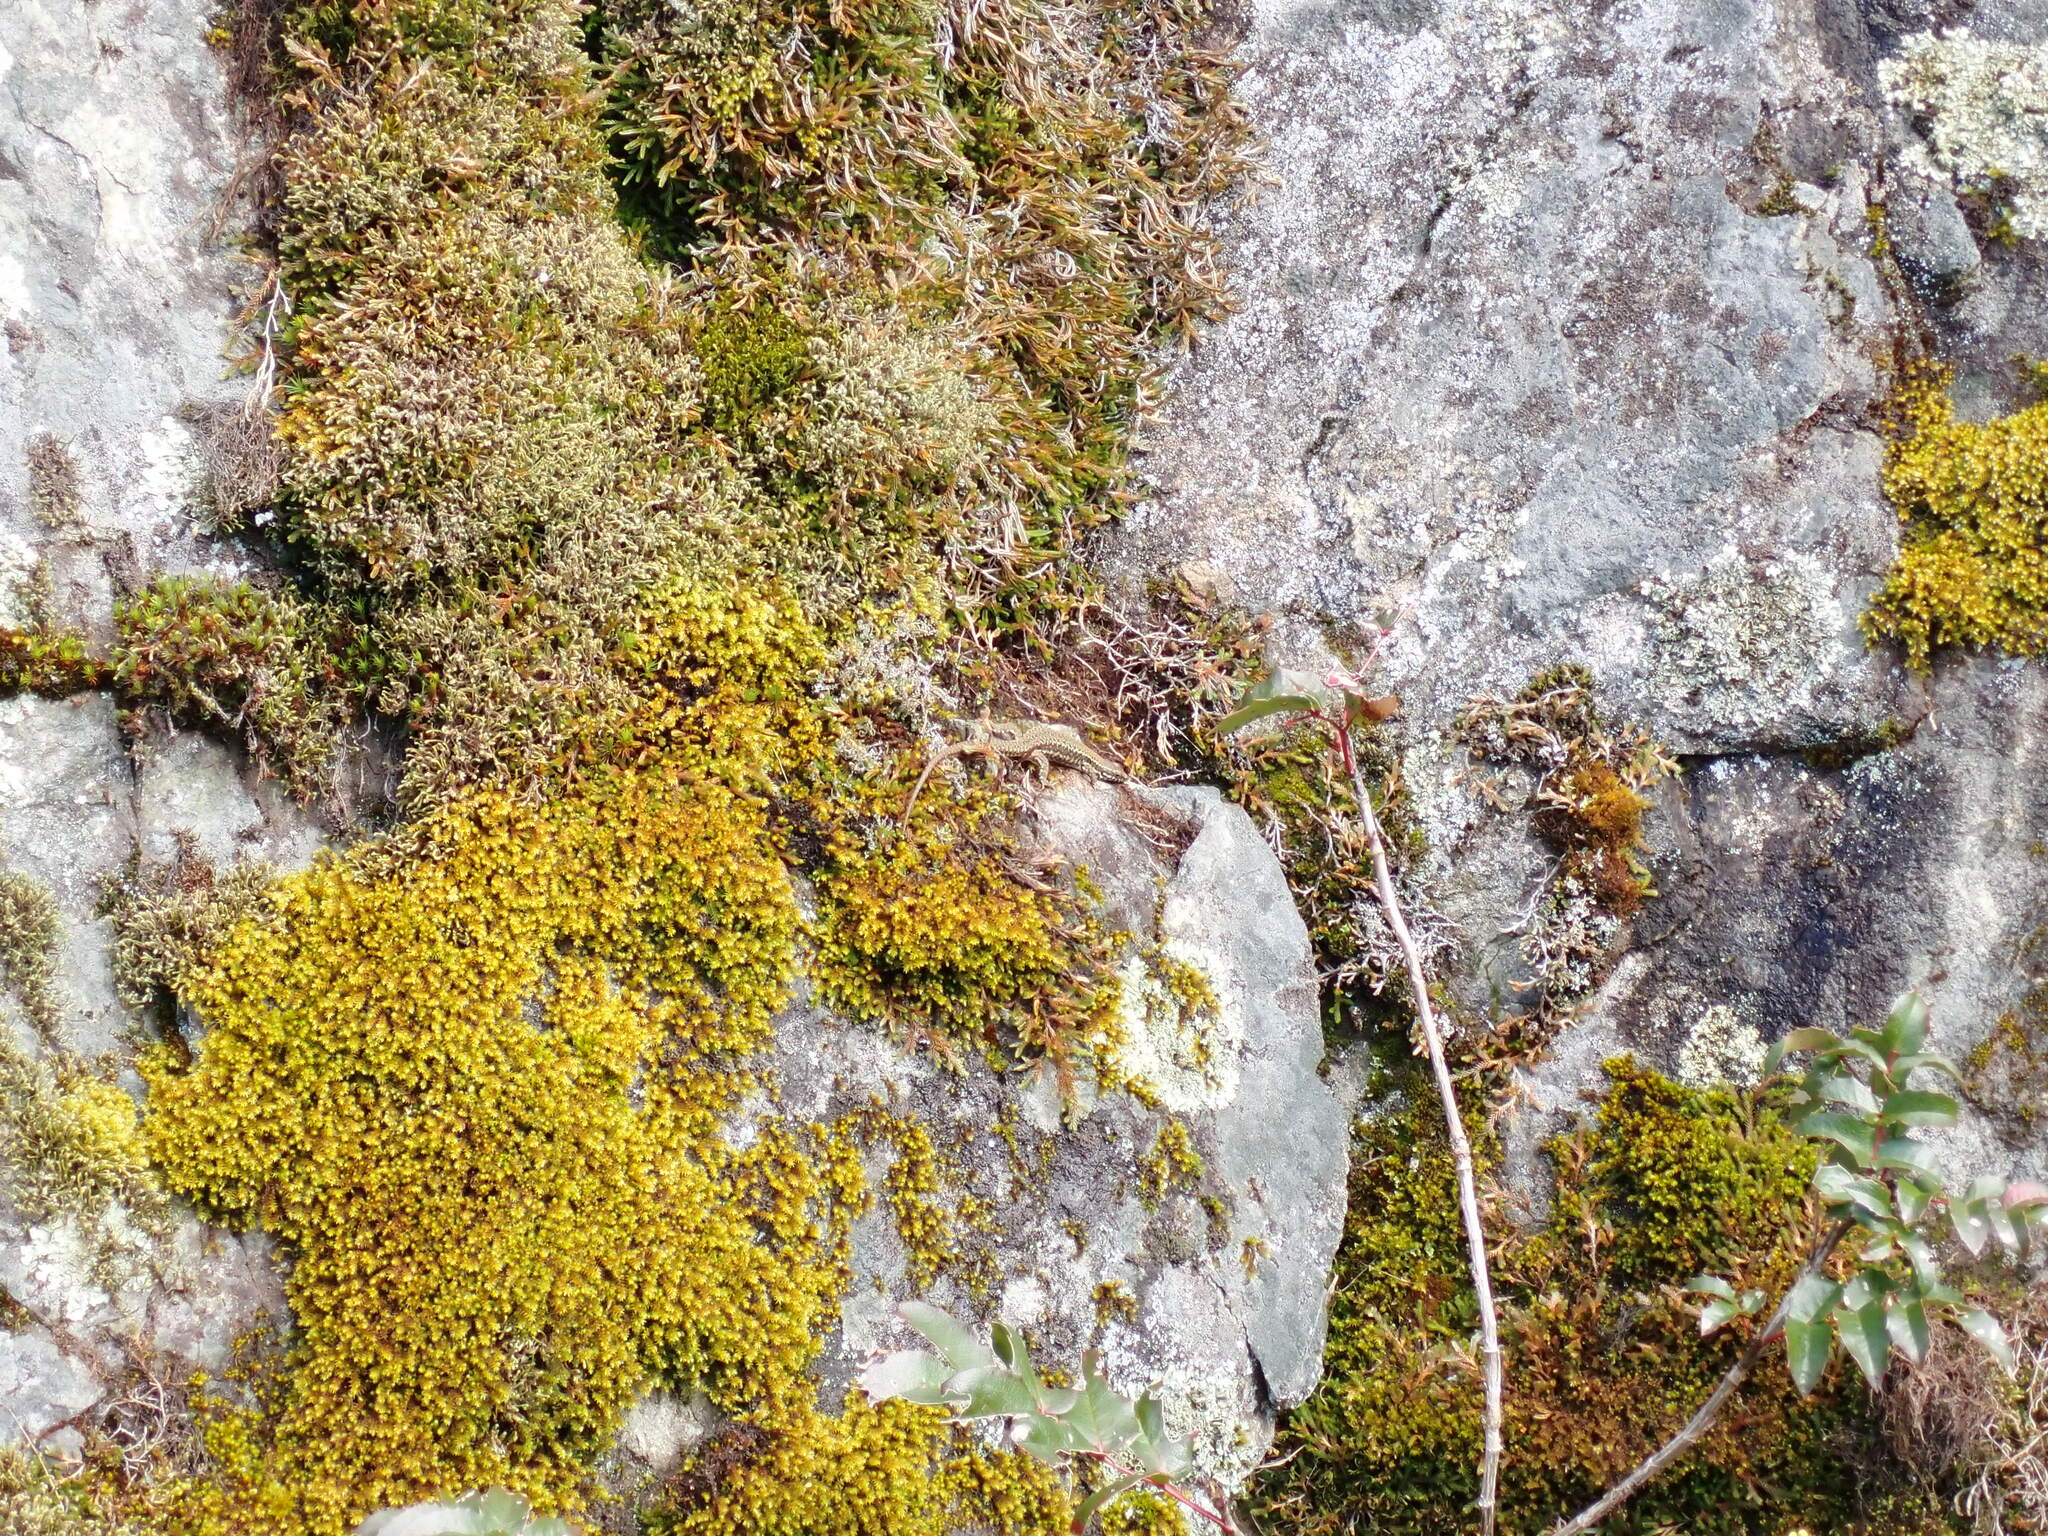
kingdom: Animalia
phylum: Chordata
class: Squamata
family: Lacertidae
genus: Podarcis
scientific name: Podarcis muralis
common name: Common wall lizard
